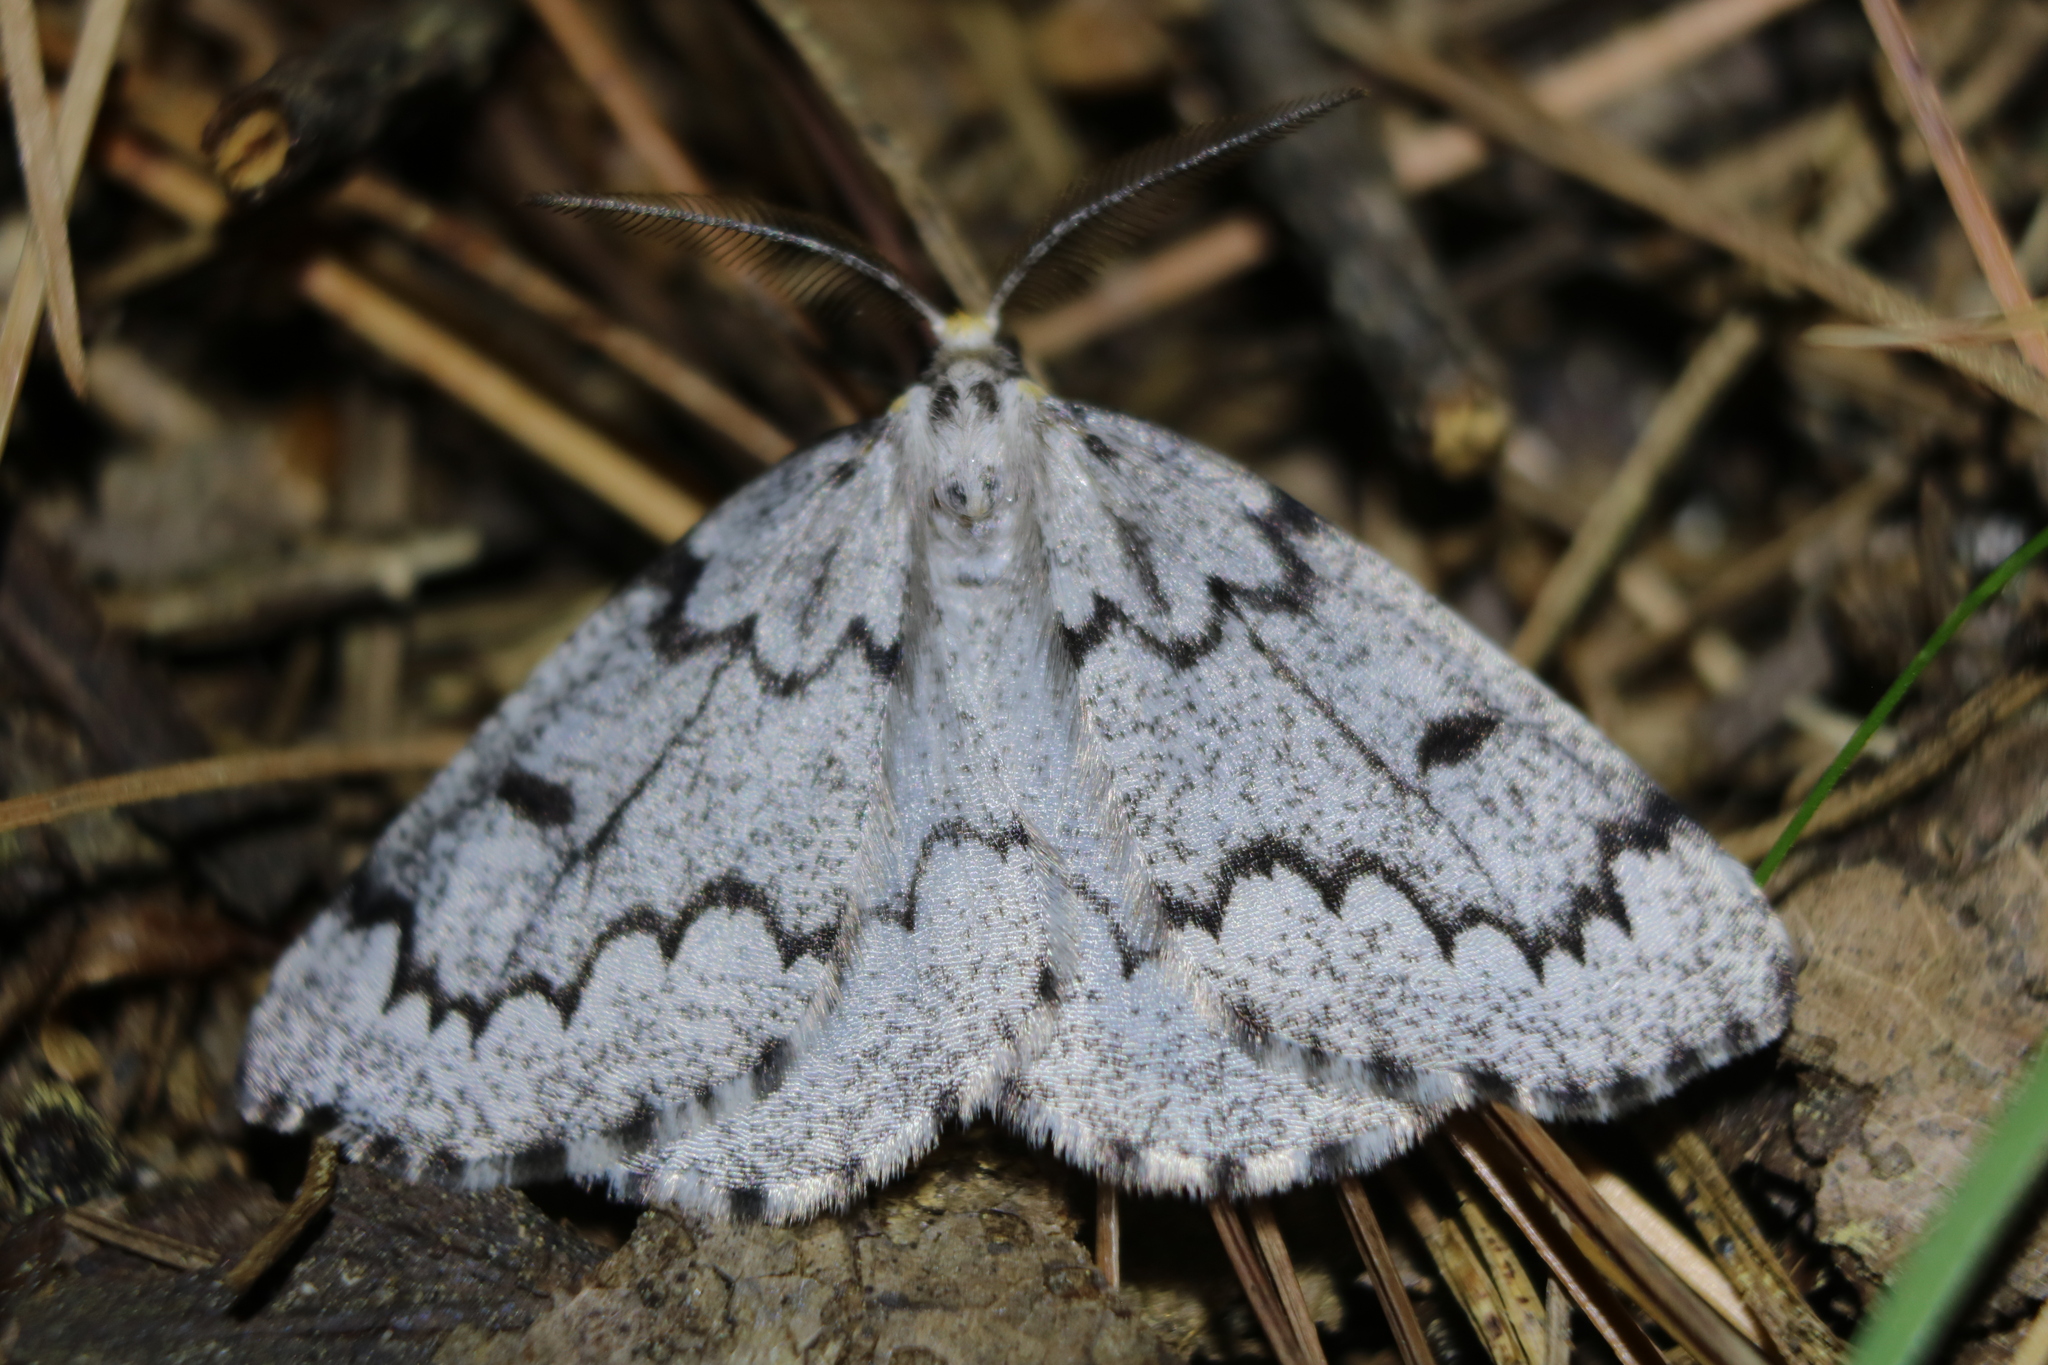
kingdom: Animalia
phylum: Arthropoda
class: Insecta
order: Lepidoptera
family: Geometridae
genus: Nepytia
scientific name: Nepytia canosaria
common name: False hemlock looper
